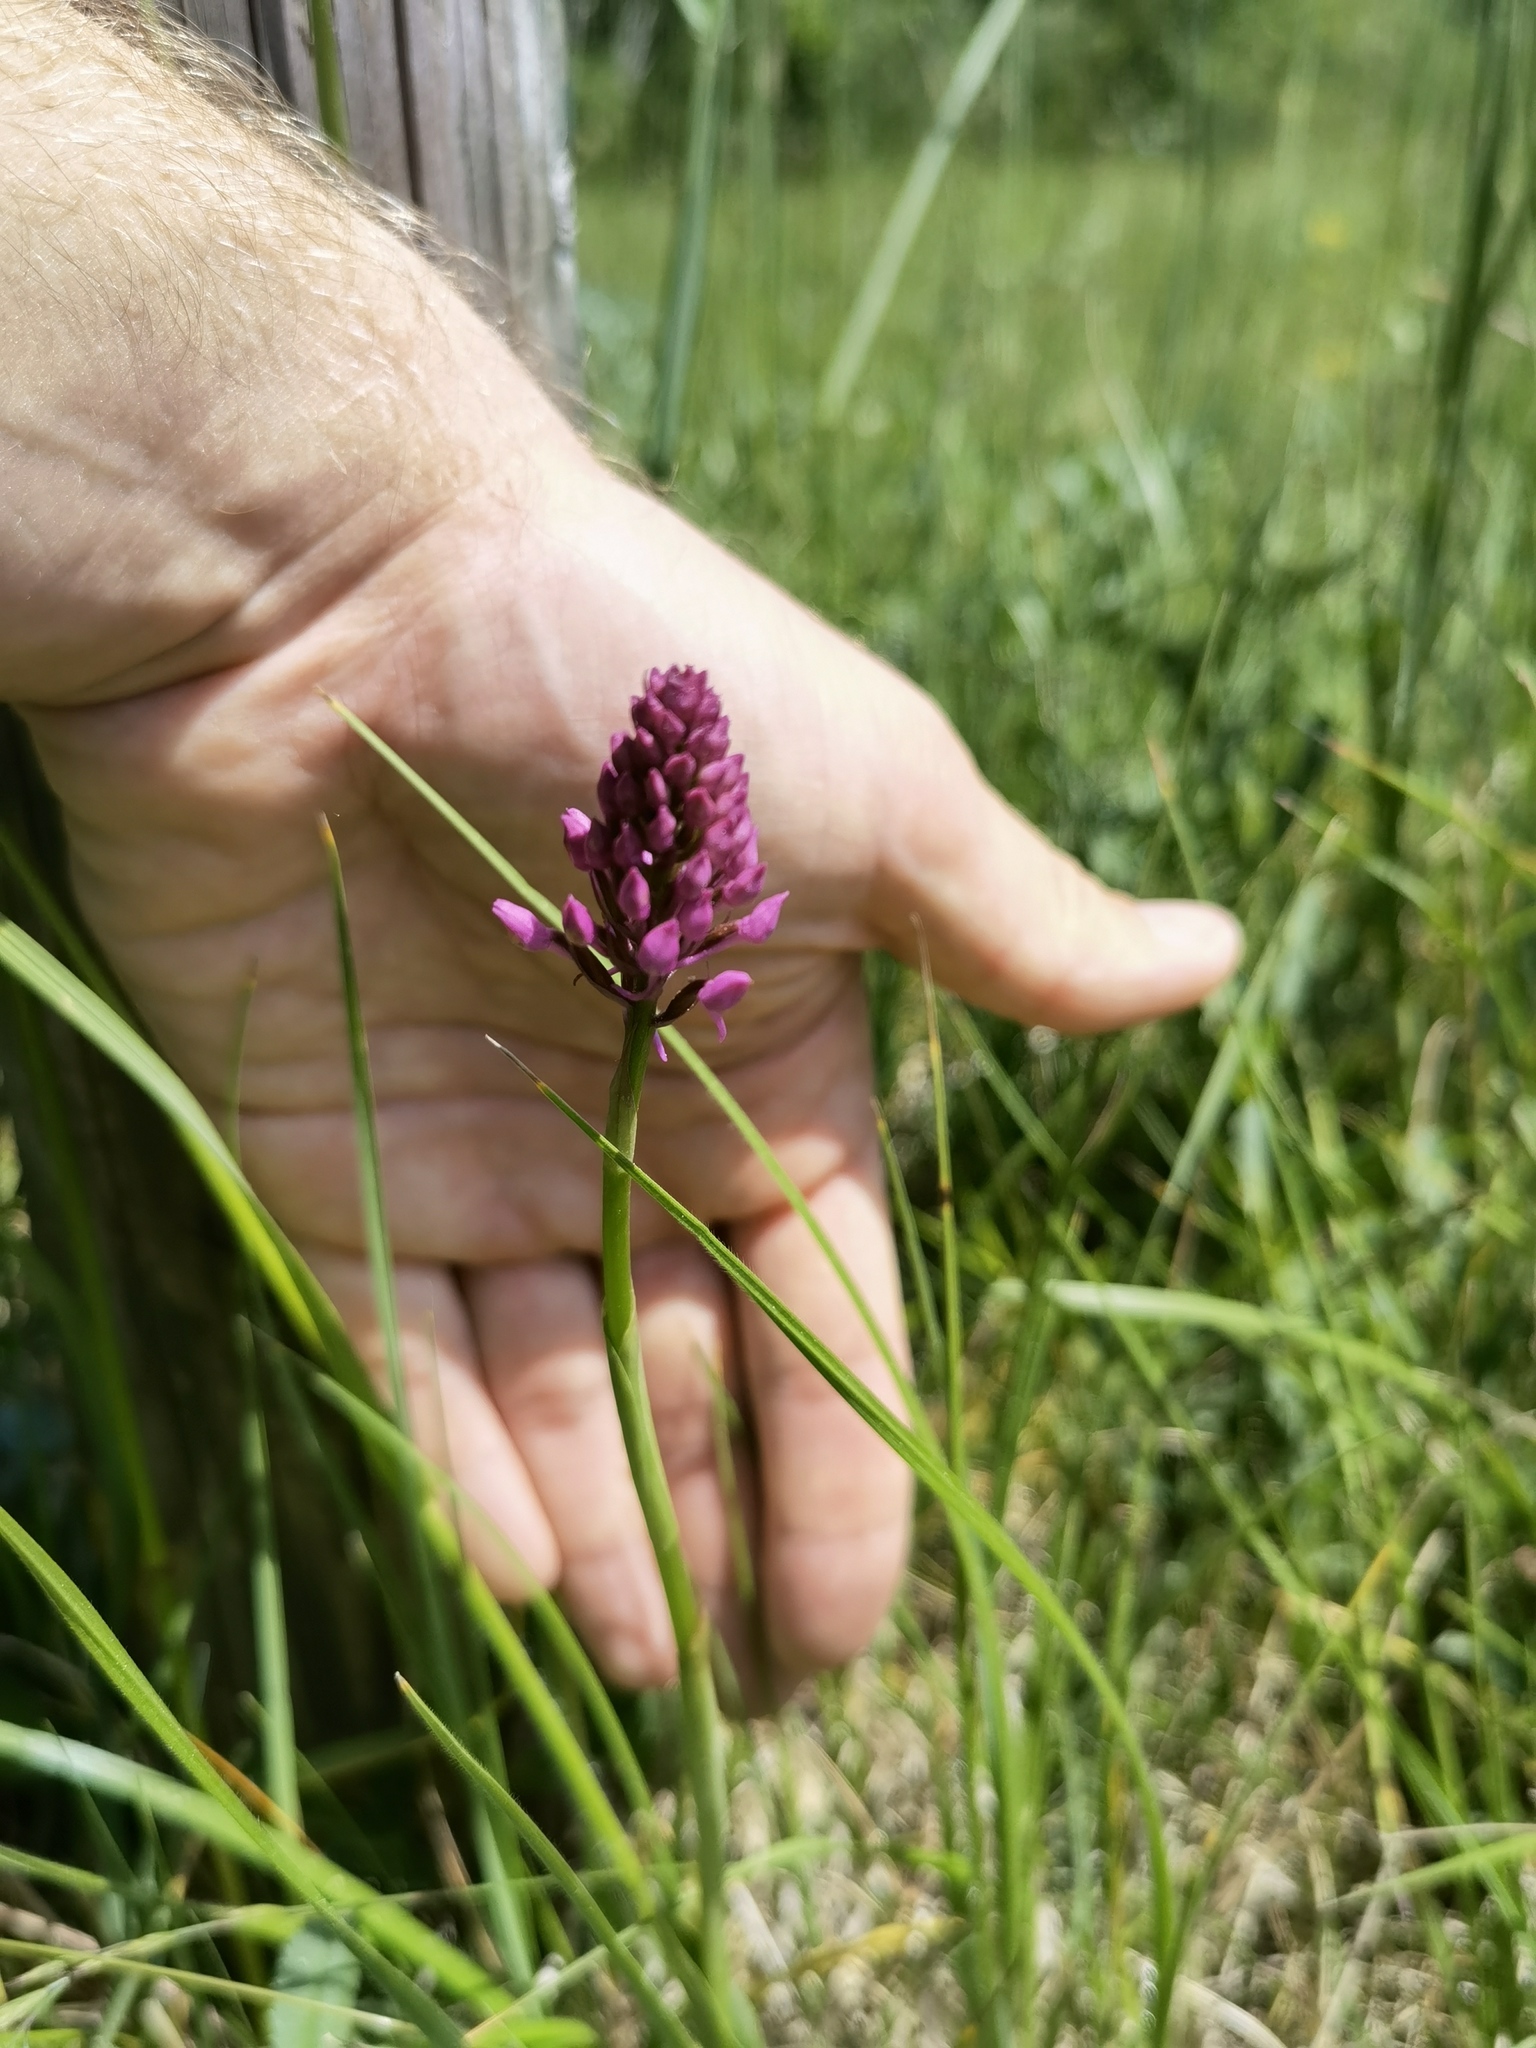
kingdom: Plantae
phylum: Tracheophyta
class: Liliopsida
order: Asparagales
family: Orchidaceae
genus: Anacamptis
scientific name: Anacamptis pyramidalis
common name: Pyramidal orchid
